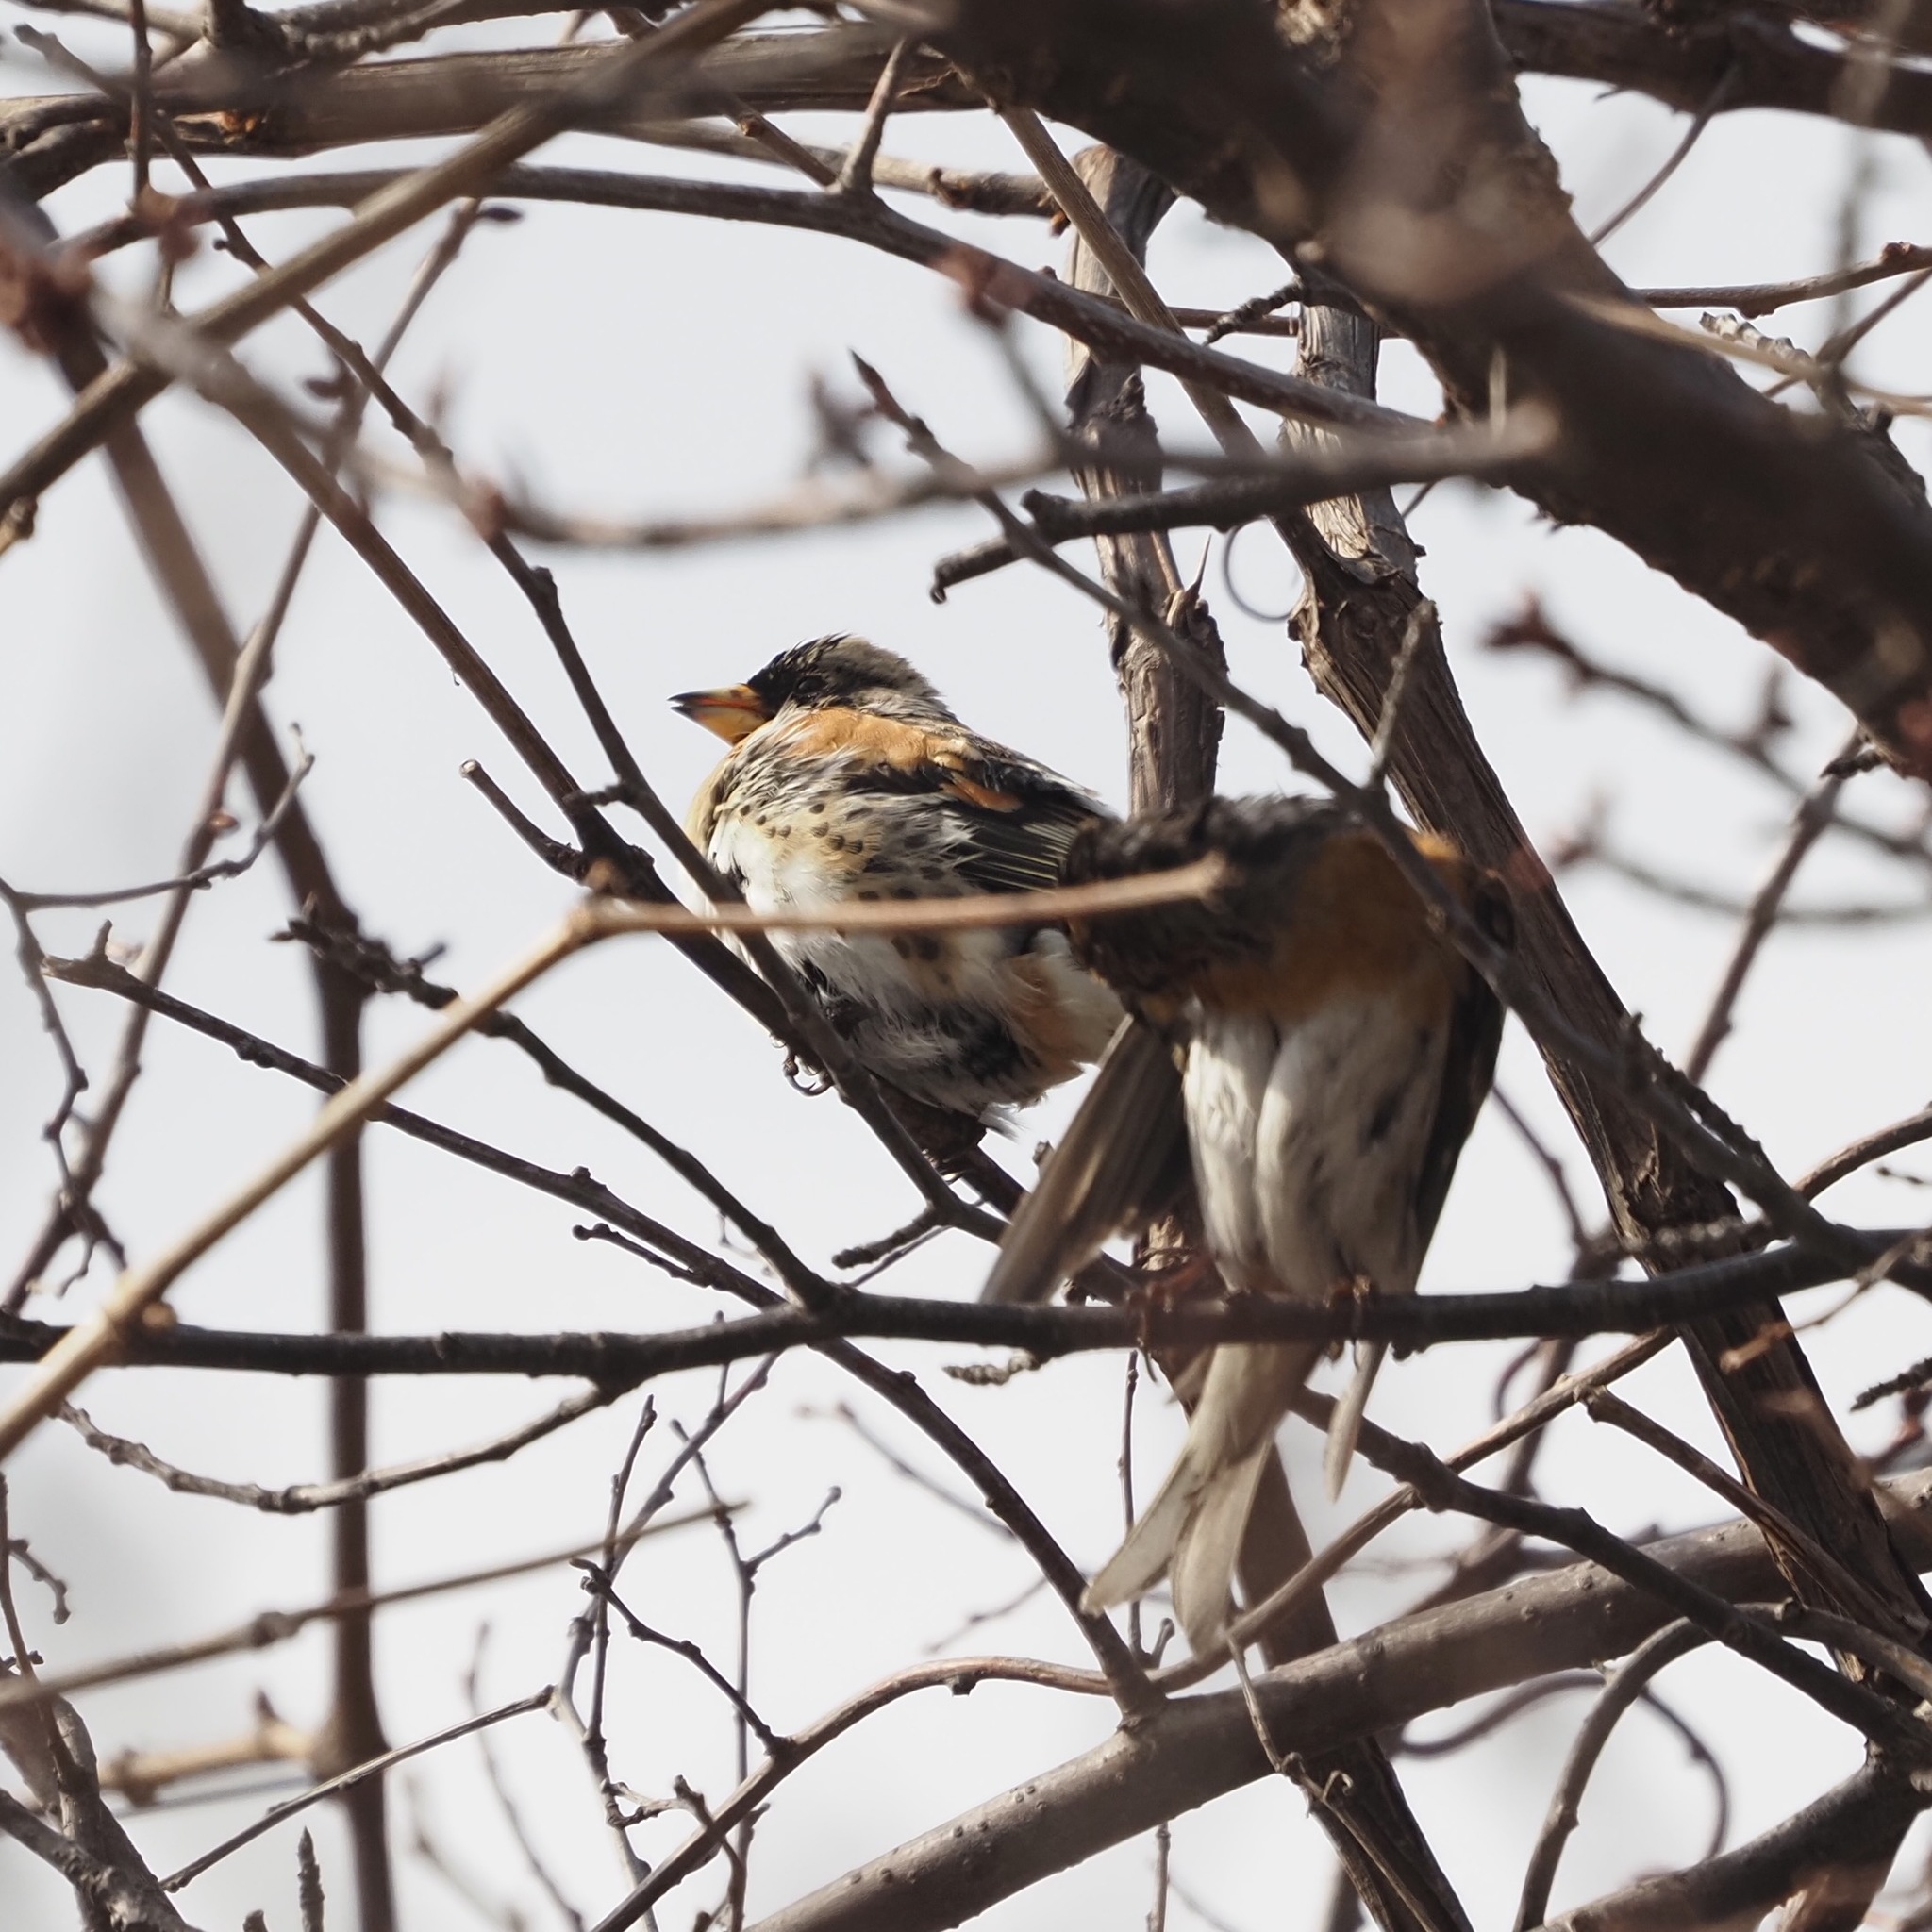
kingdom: Animalia
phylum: Chordata
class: Aves
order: Passeriformes
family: Fringillidae
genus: Fringilla
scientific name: Fringilla montifringilla
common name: Brambling
